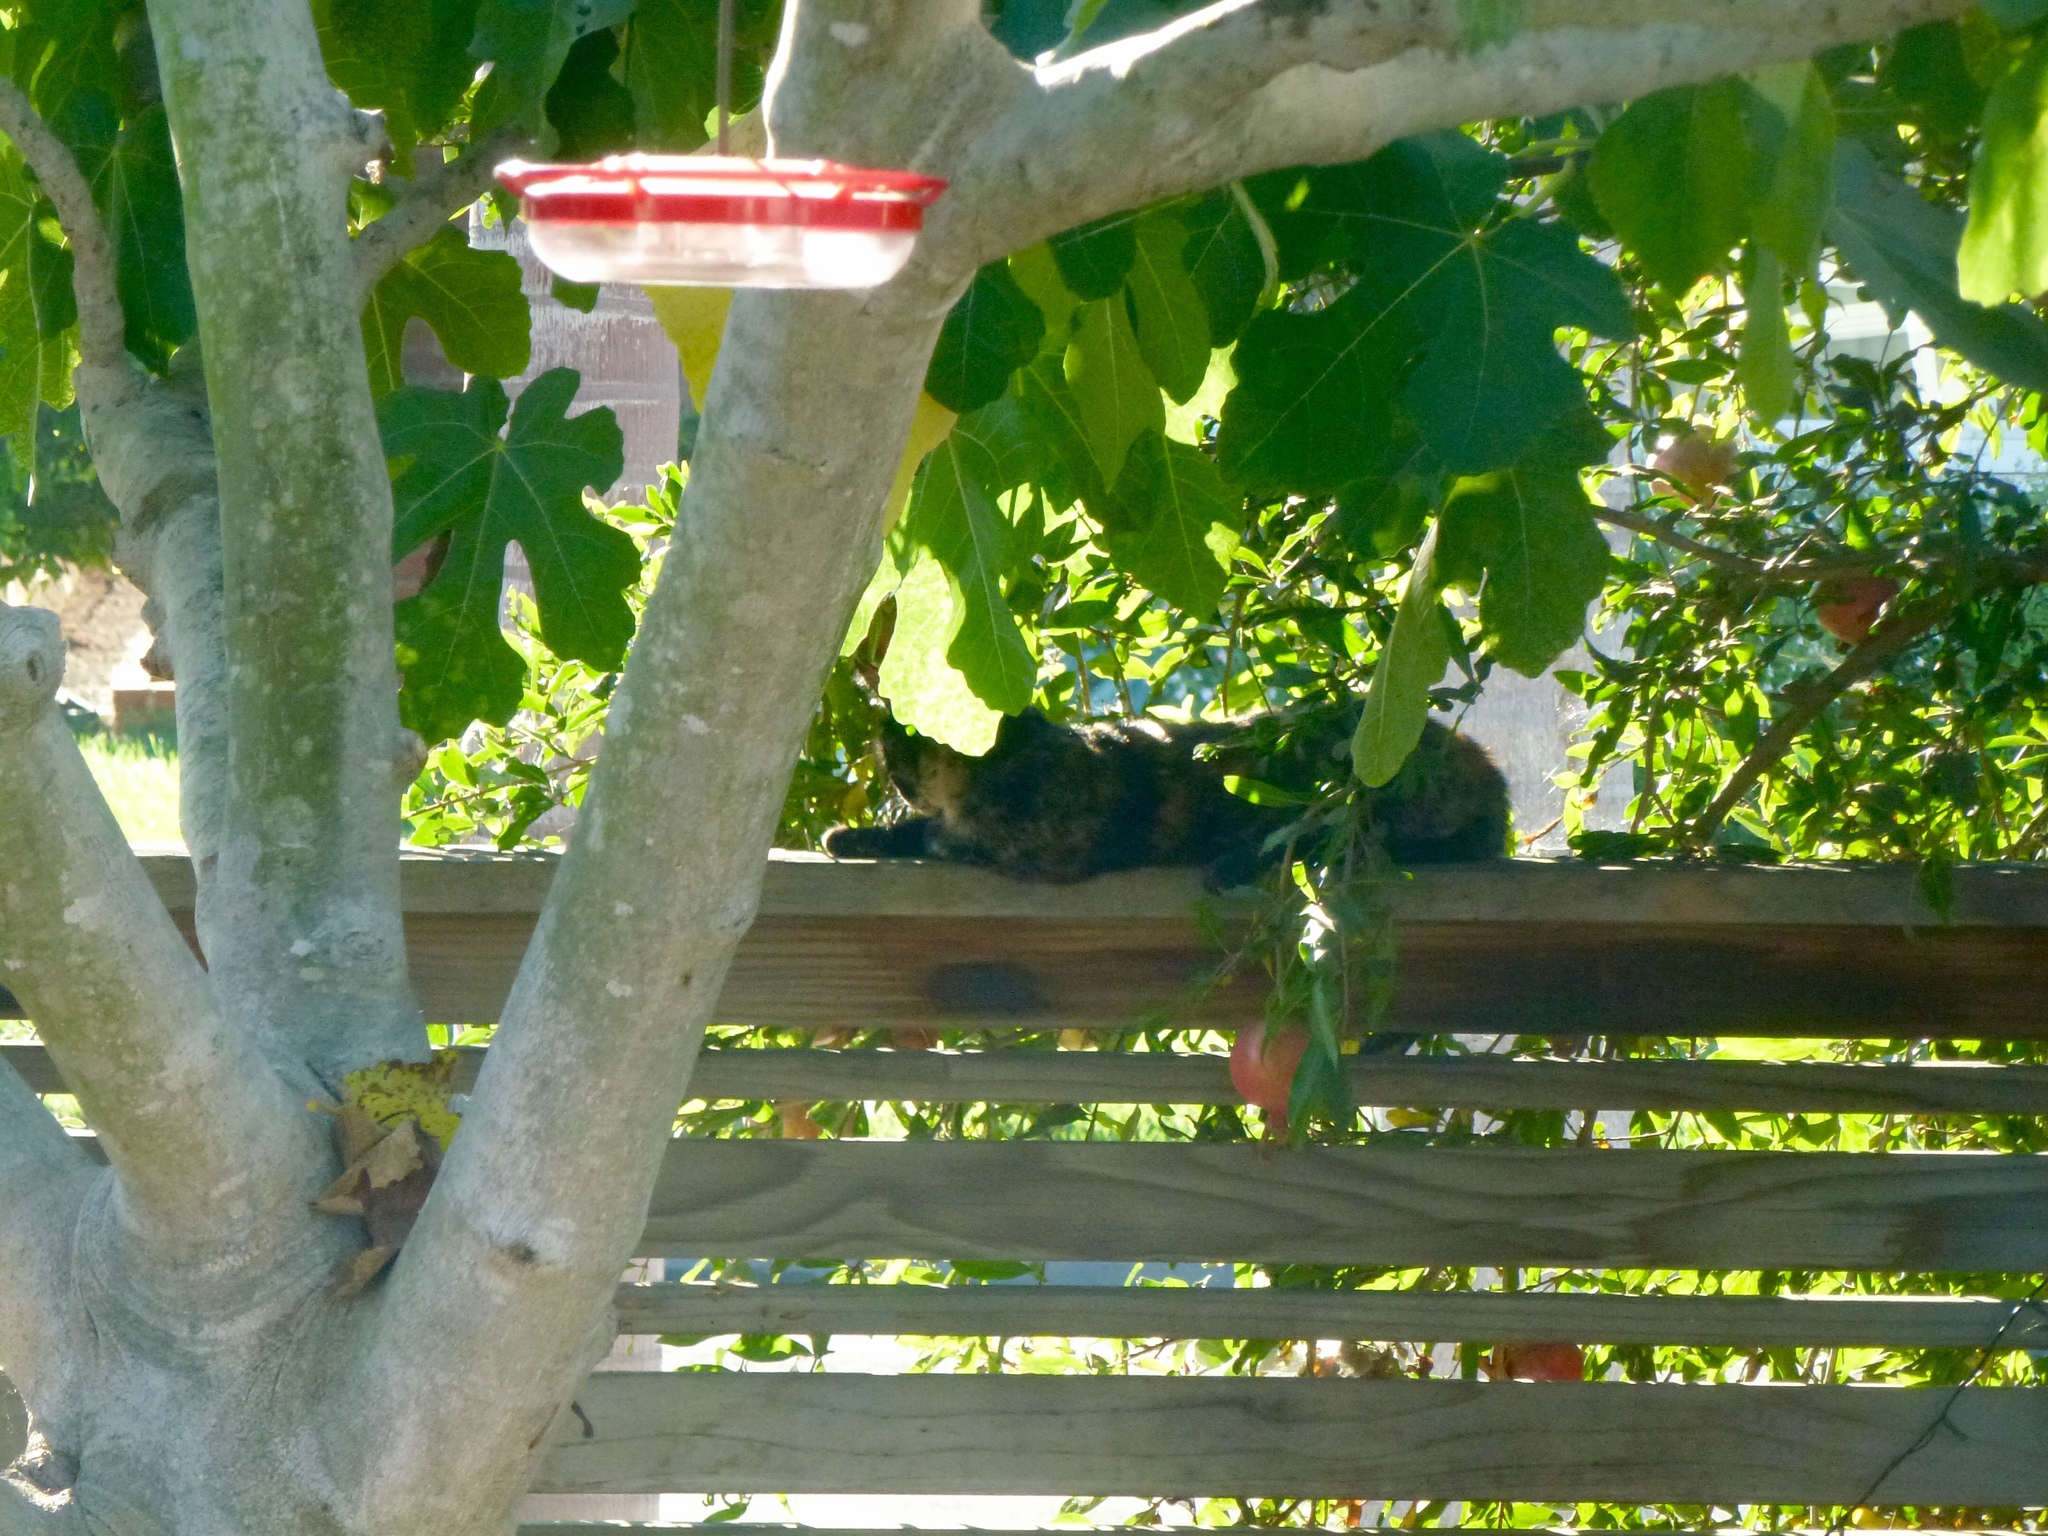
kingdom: Animalia
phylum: Chordata
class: Mammalia
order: Carnivora
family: Felidae
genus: Felis
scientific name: Felis catus
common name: Domestic cat
